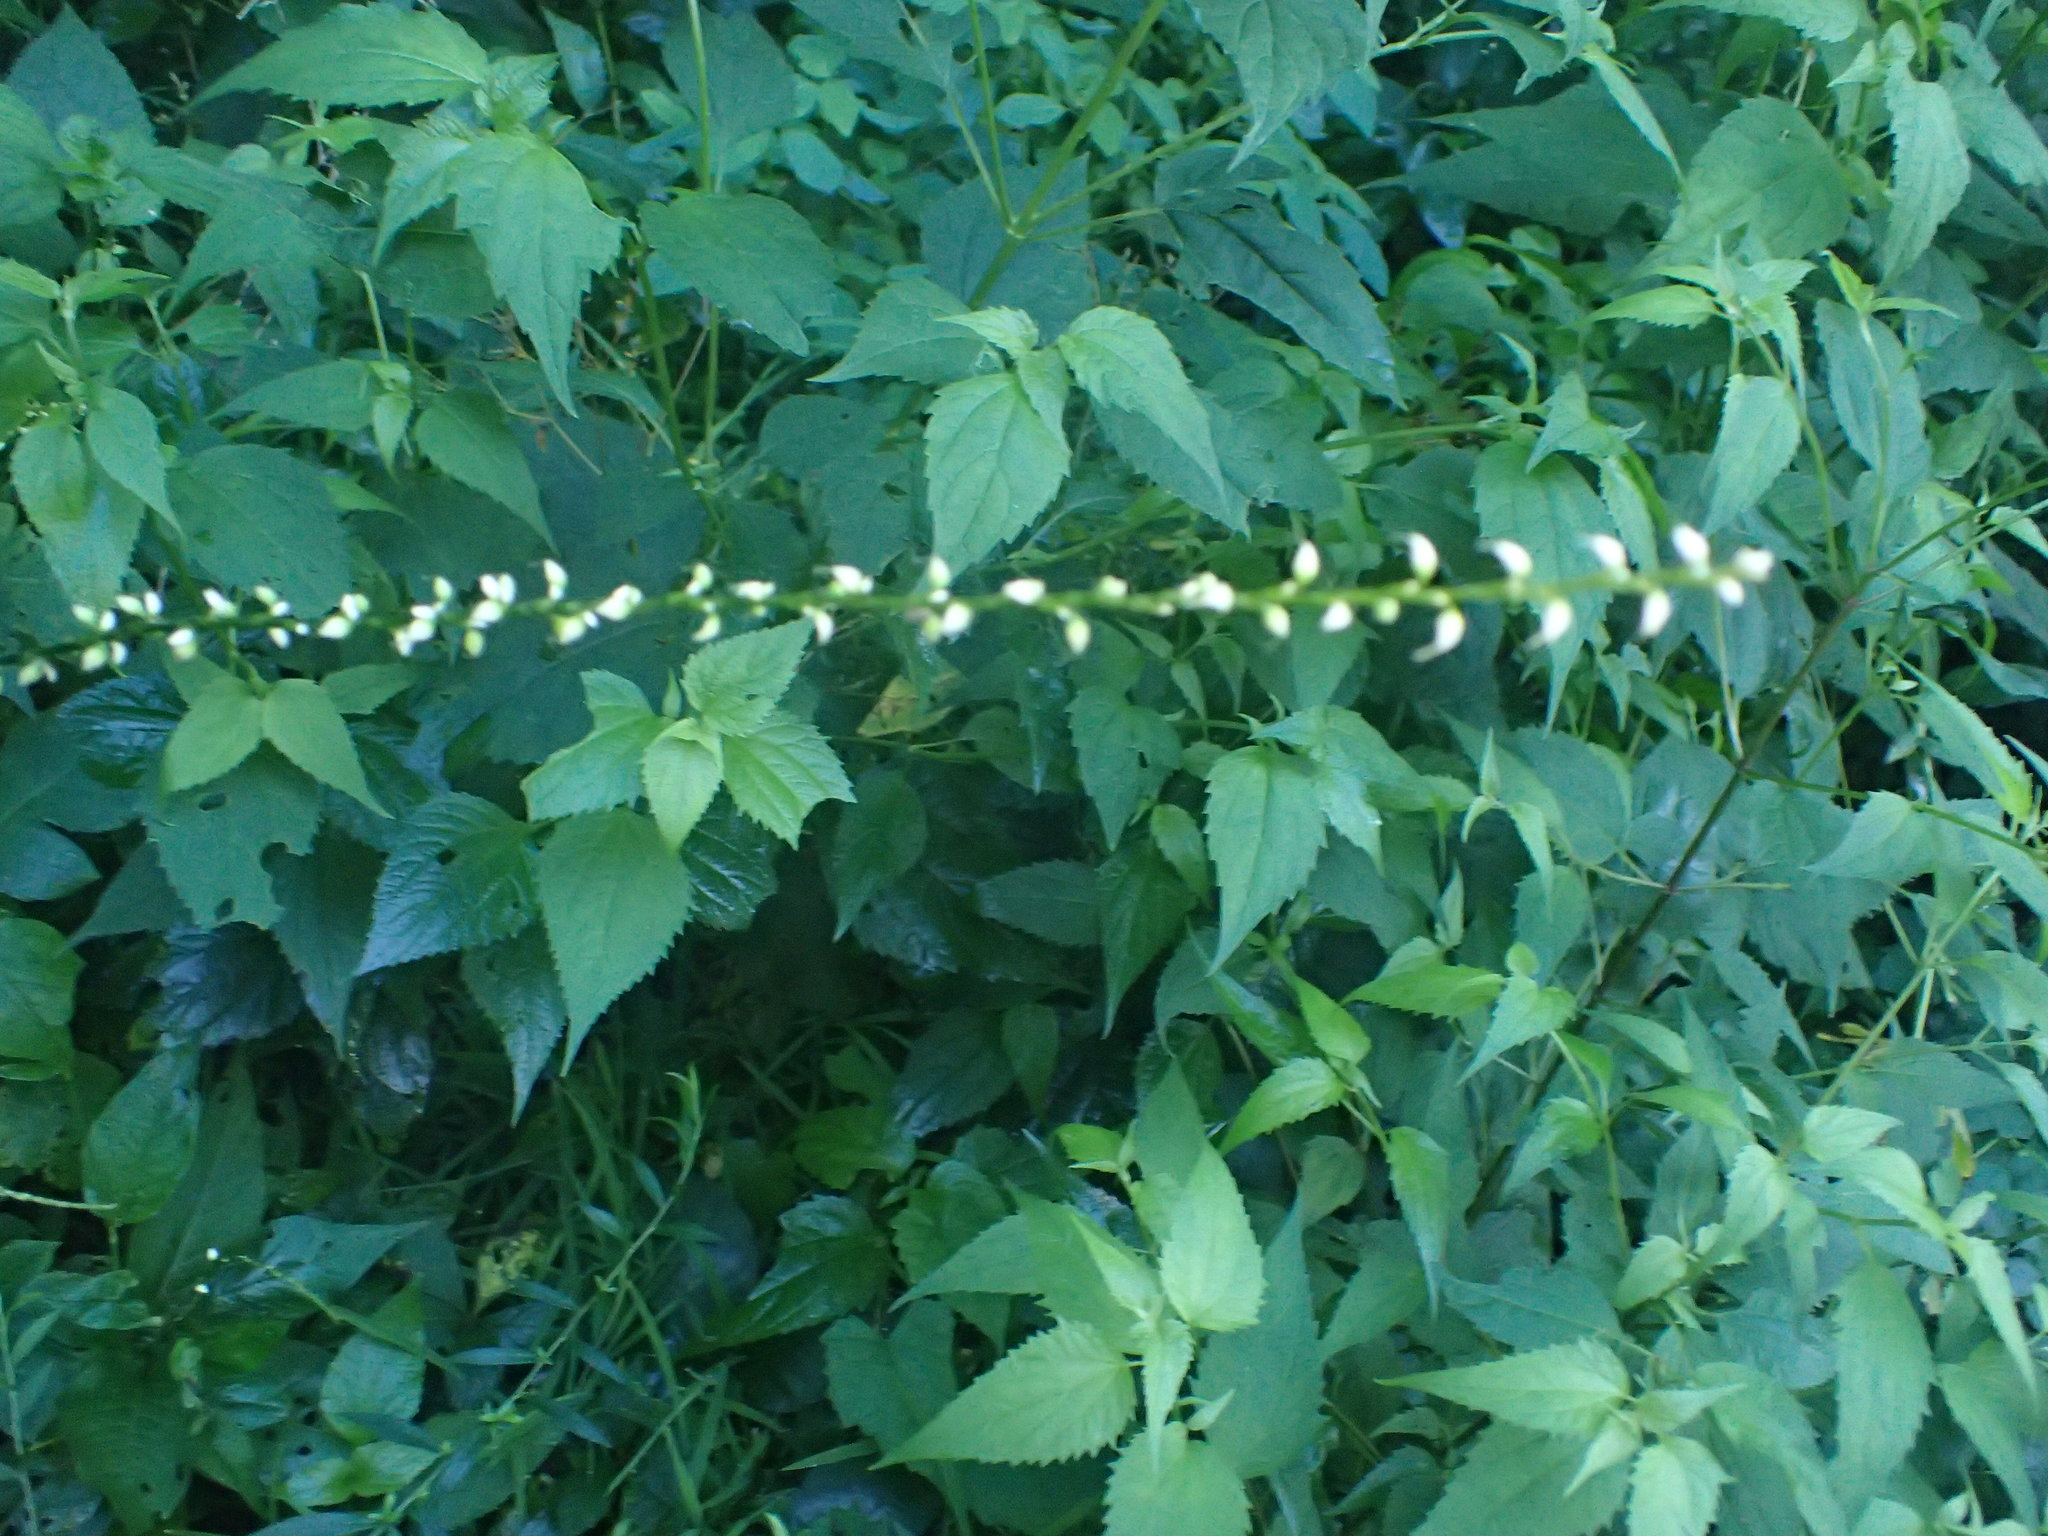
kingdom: Plantae
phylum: Tracheophyta
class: Magnoliopsida
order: Caryophyllales
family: Polygonaceae
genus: Persicaria
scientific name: Persicaria virginiana
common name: Jumpseed
